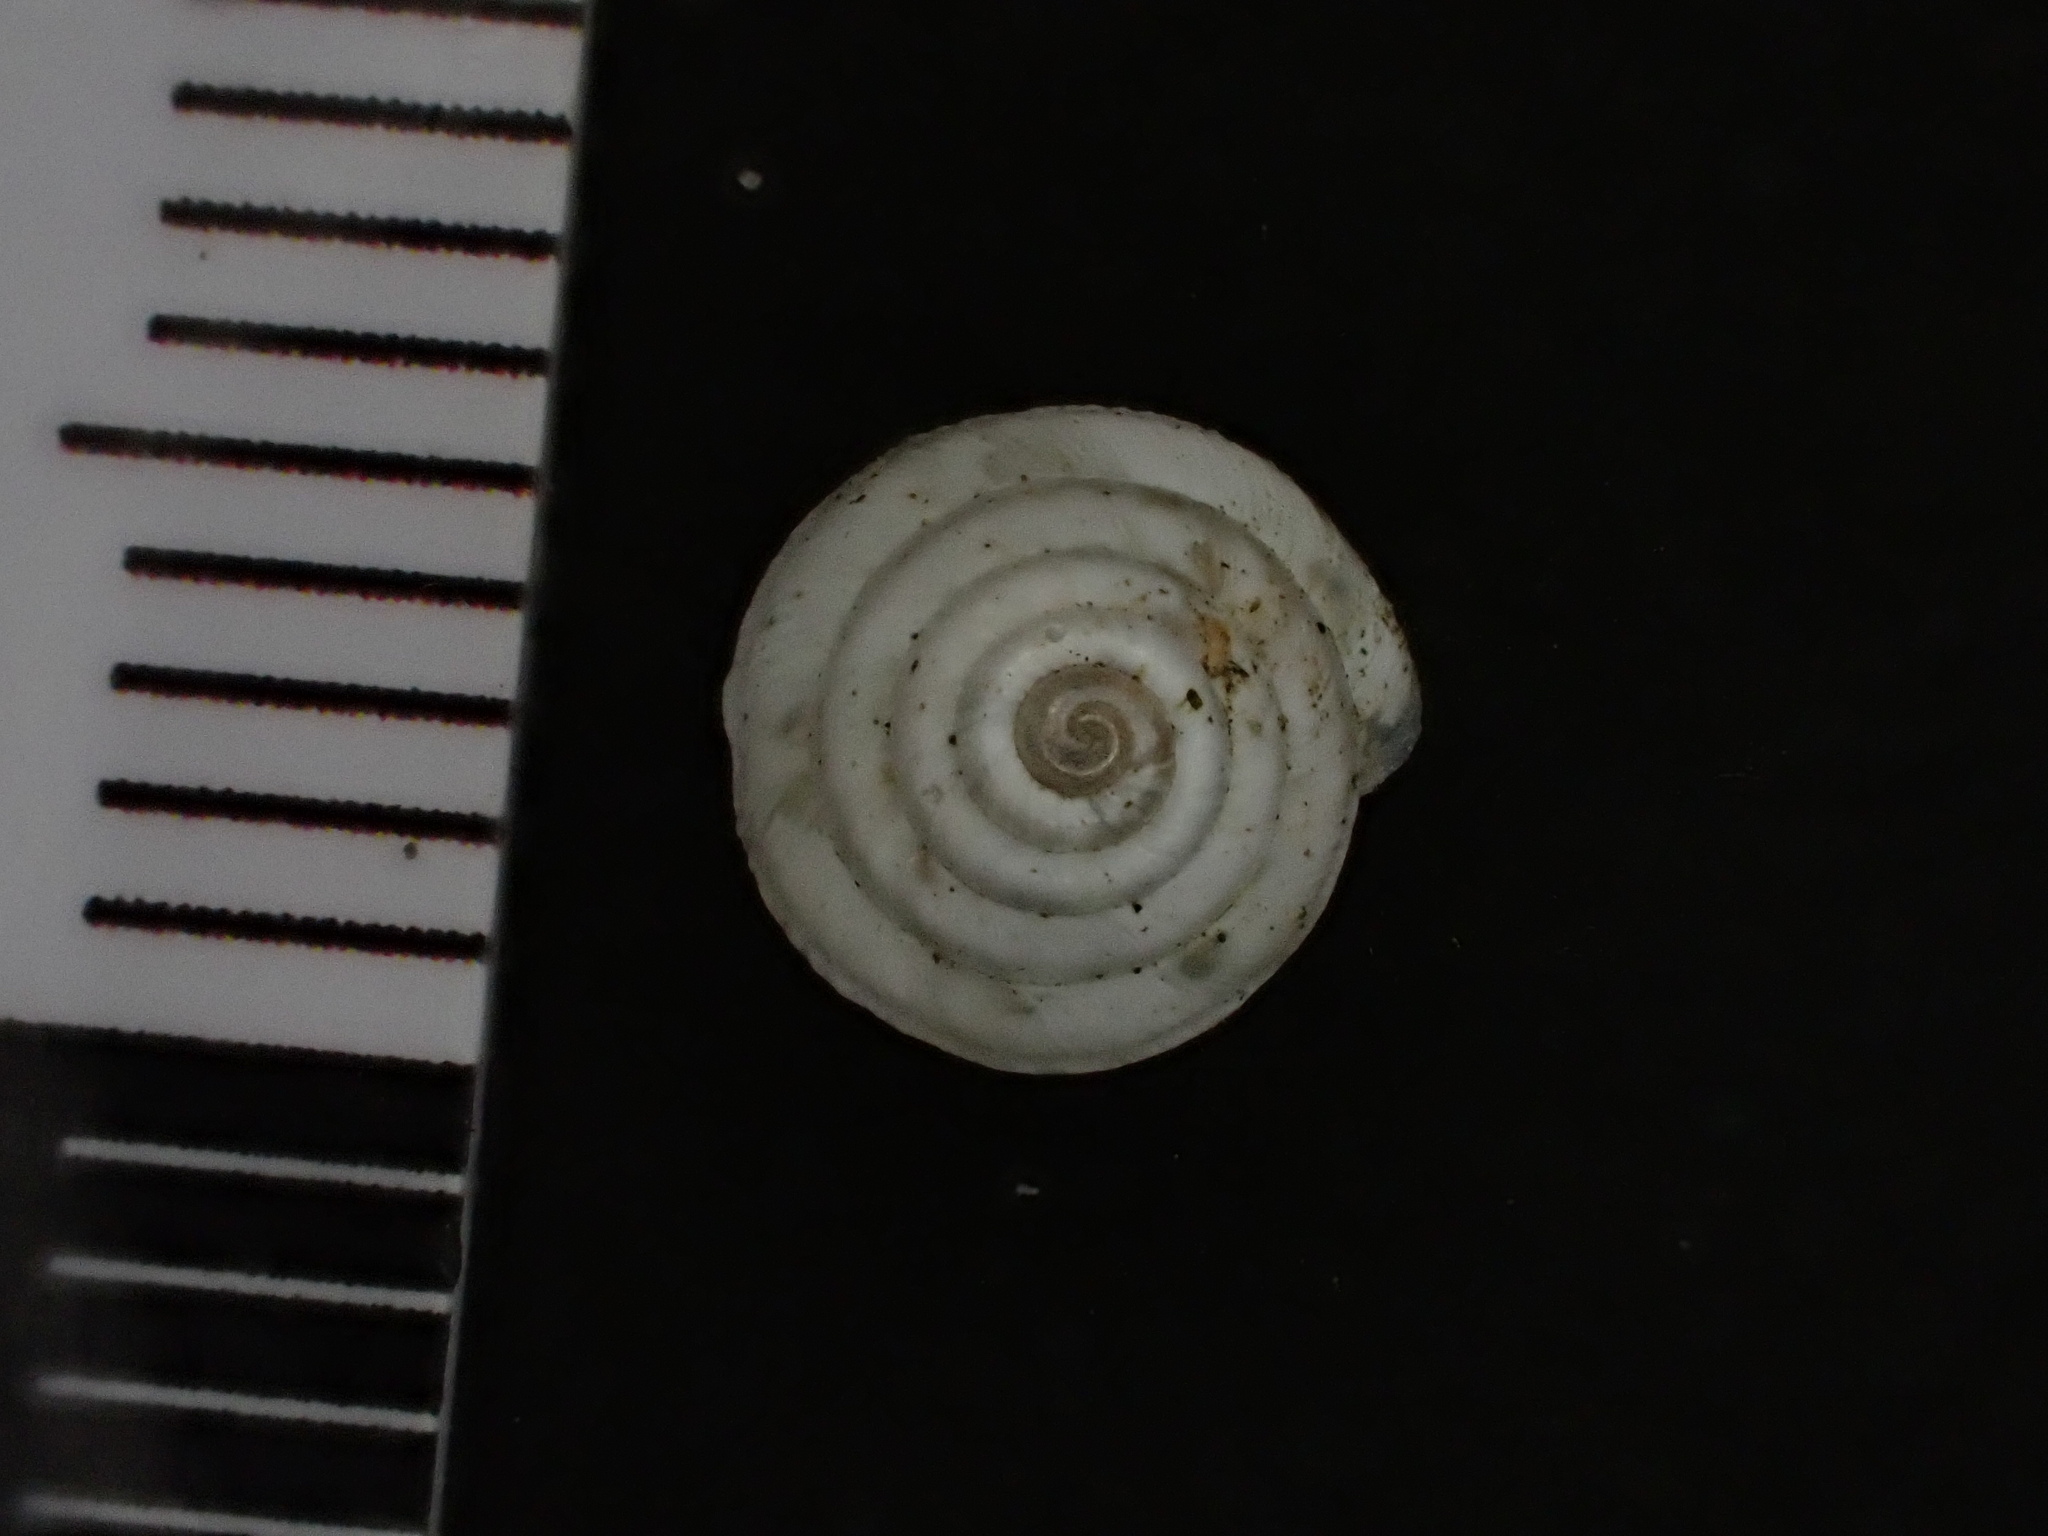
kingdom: Animalia
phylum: Mollusca
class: Gastropoda
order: Stylommatophora
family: Geomitridae
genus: Trochoidea
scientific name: Trochoidea trochoides
